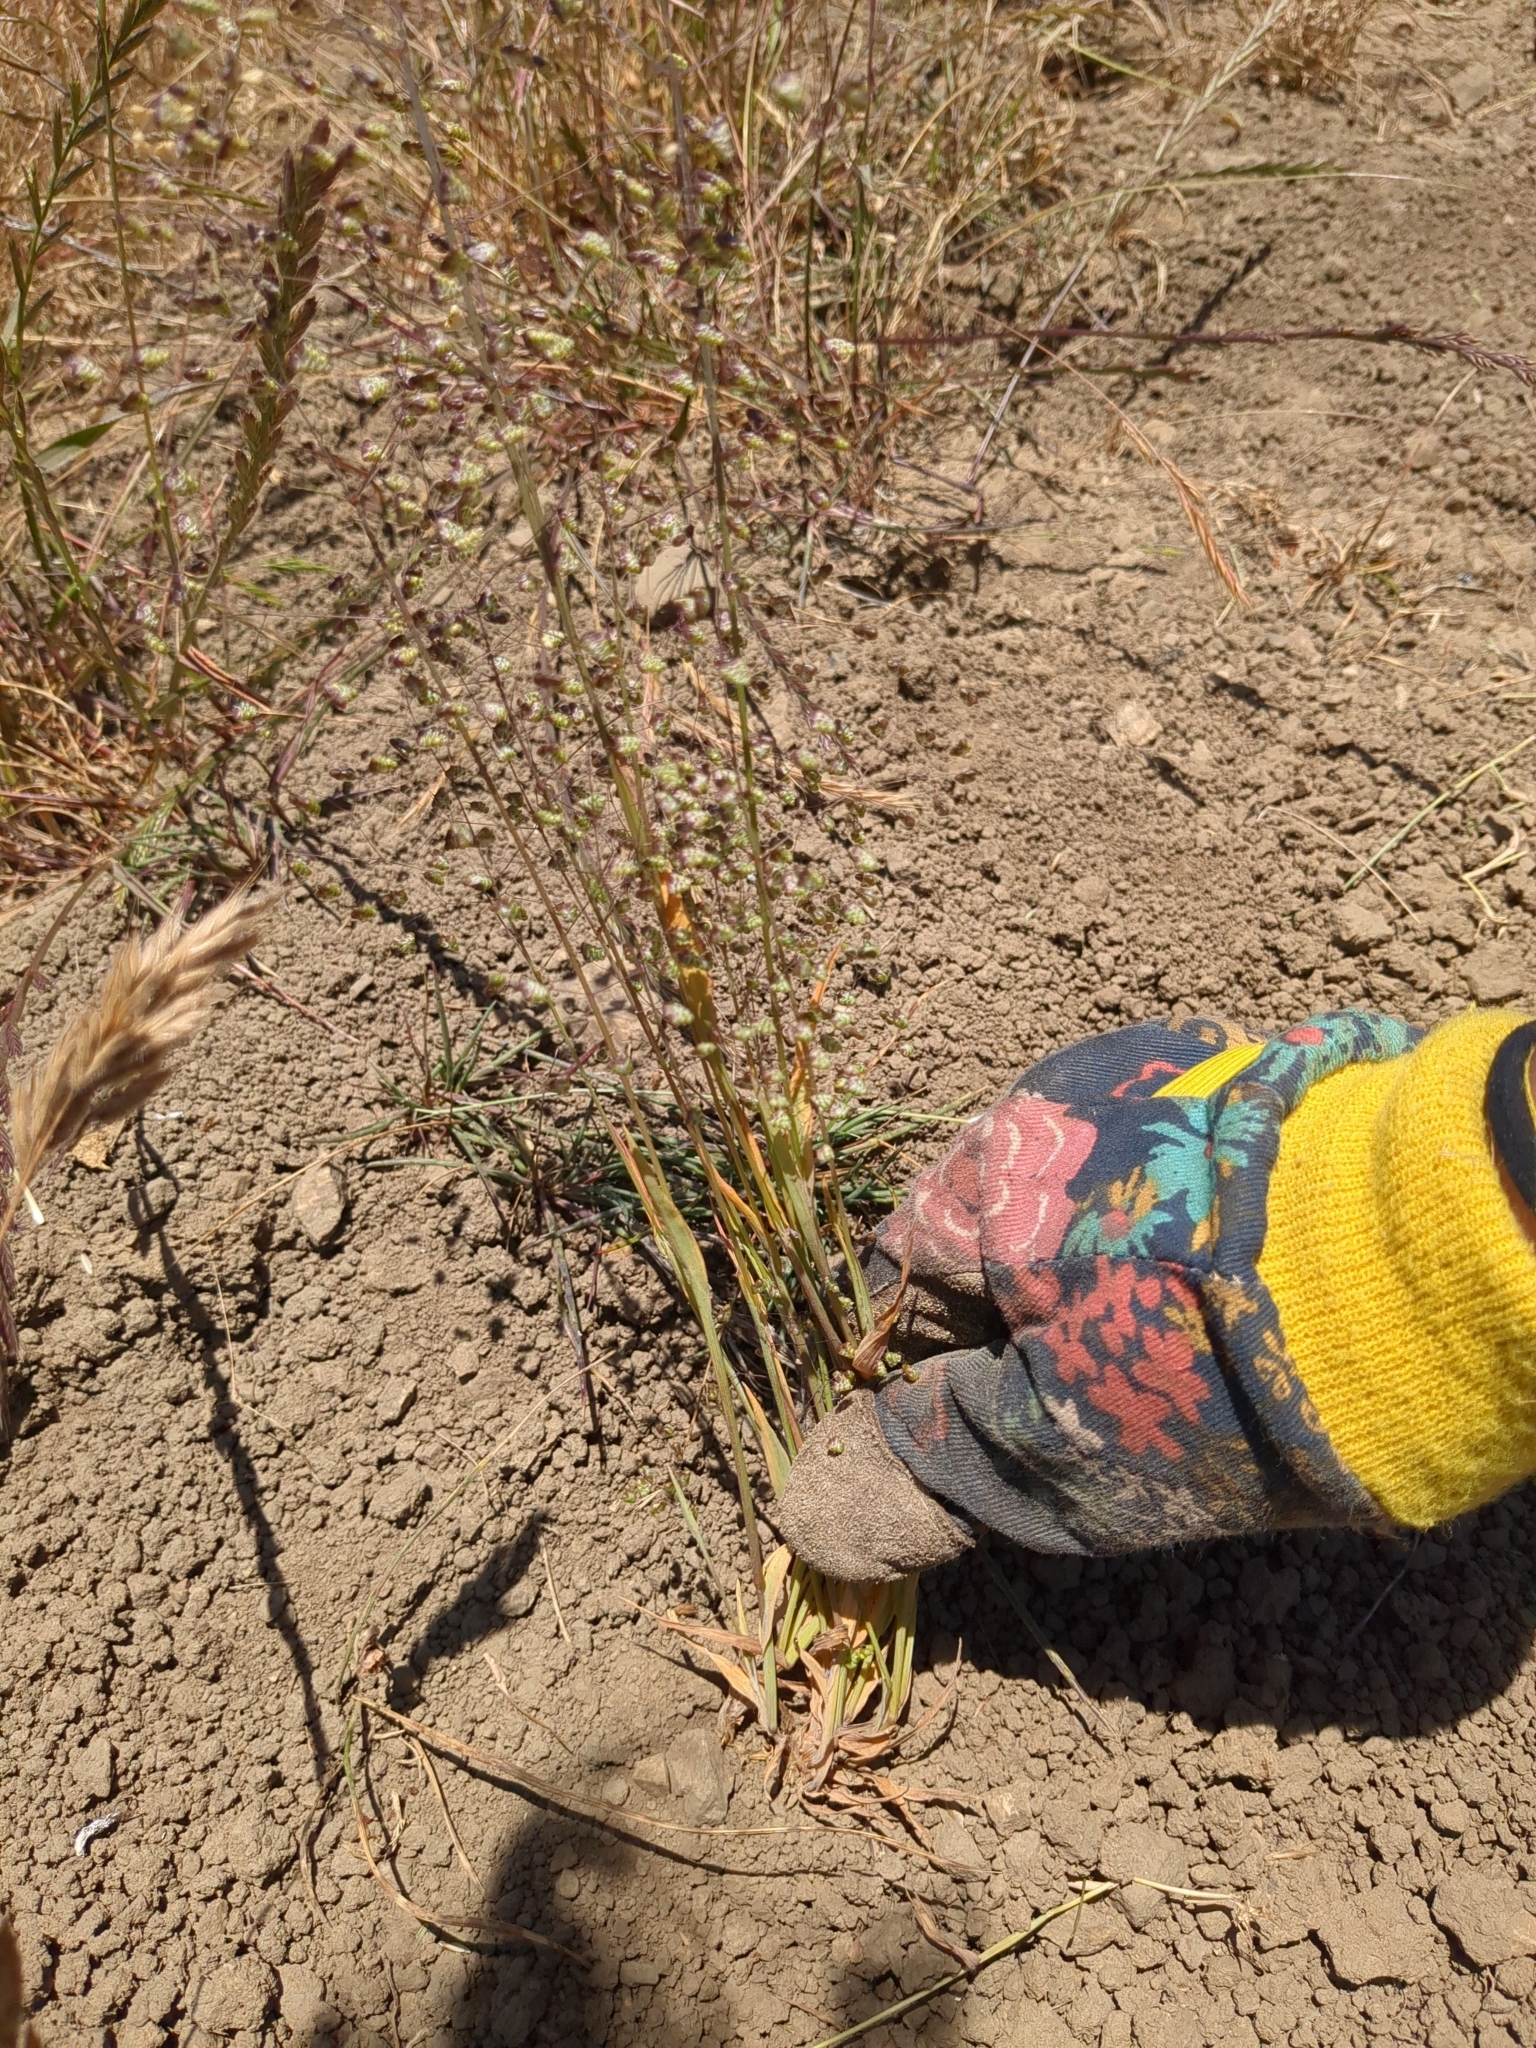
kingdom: Plantae
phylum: Tracheophyta
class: Liliopsida
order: Poales
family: Poaceae
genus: Briza
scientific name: Briza minor
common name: Lesser quaking-grass
